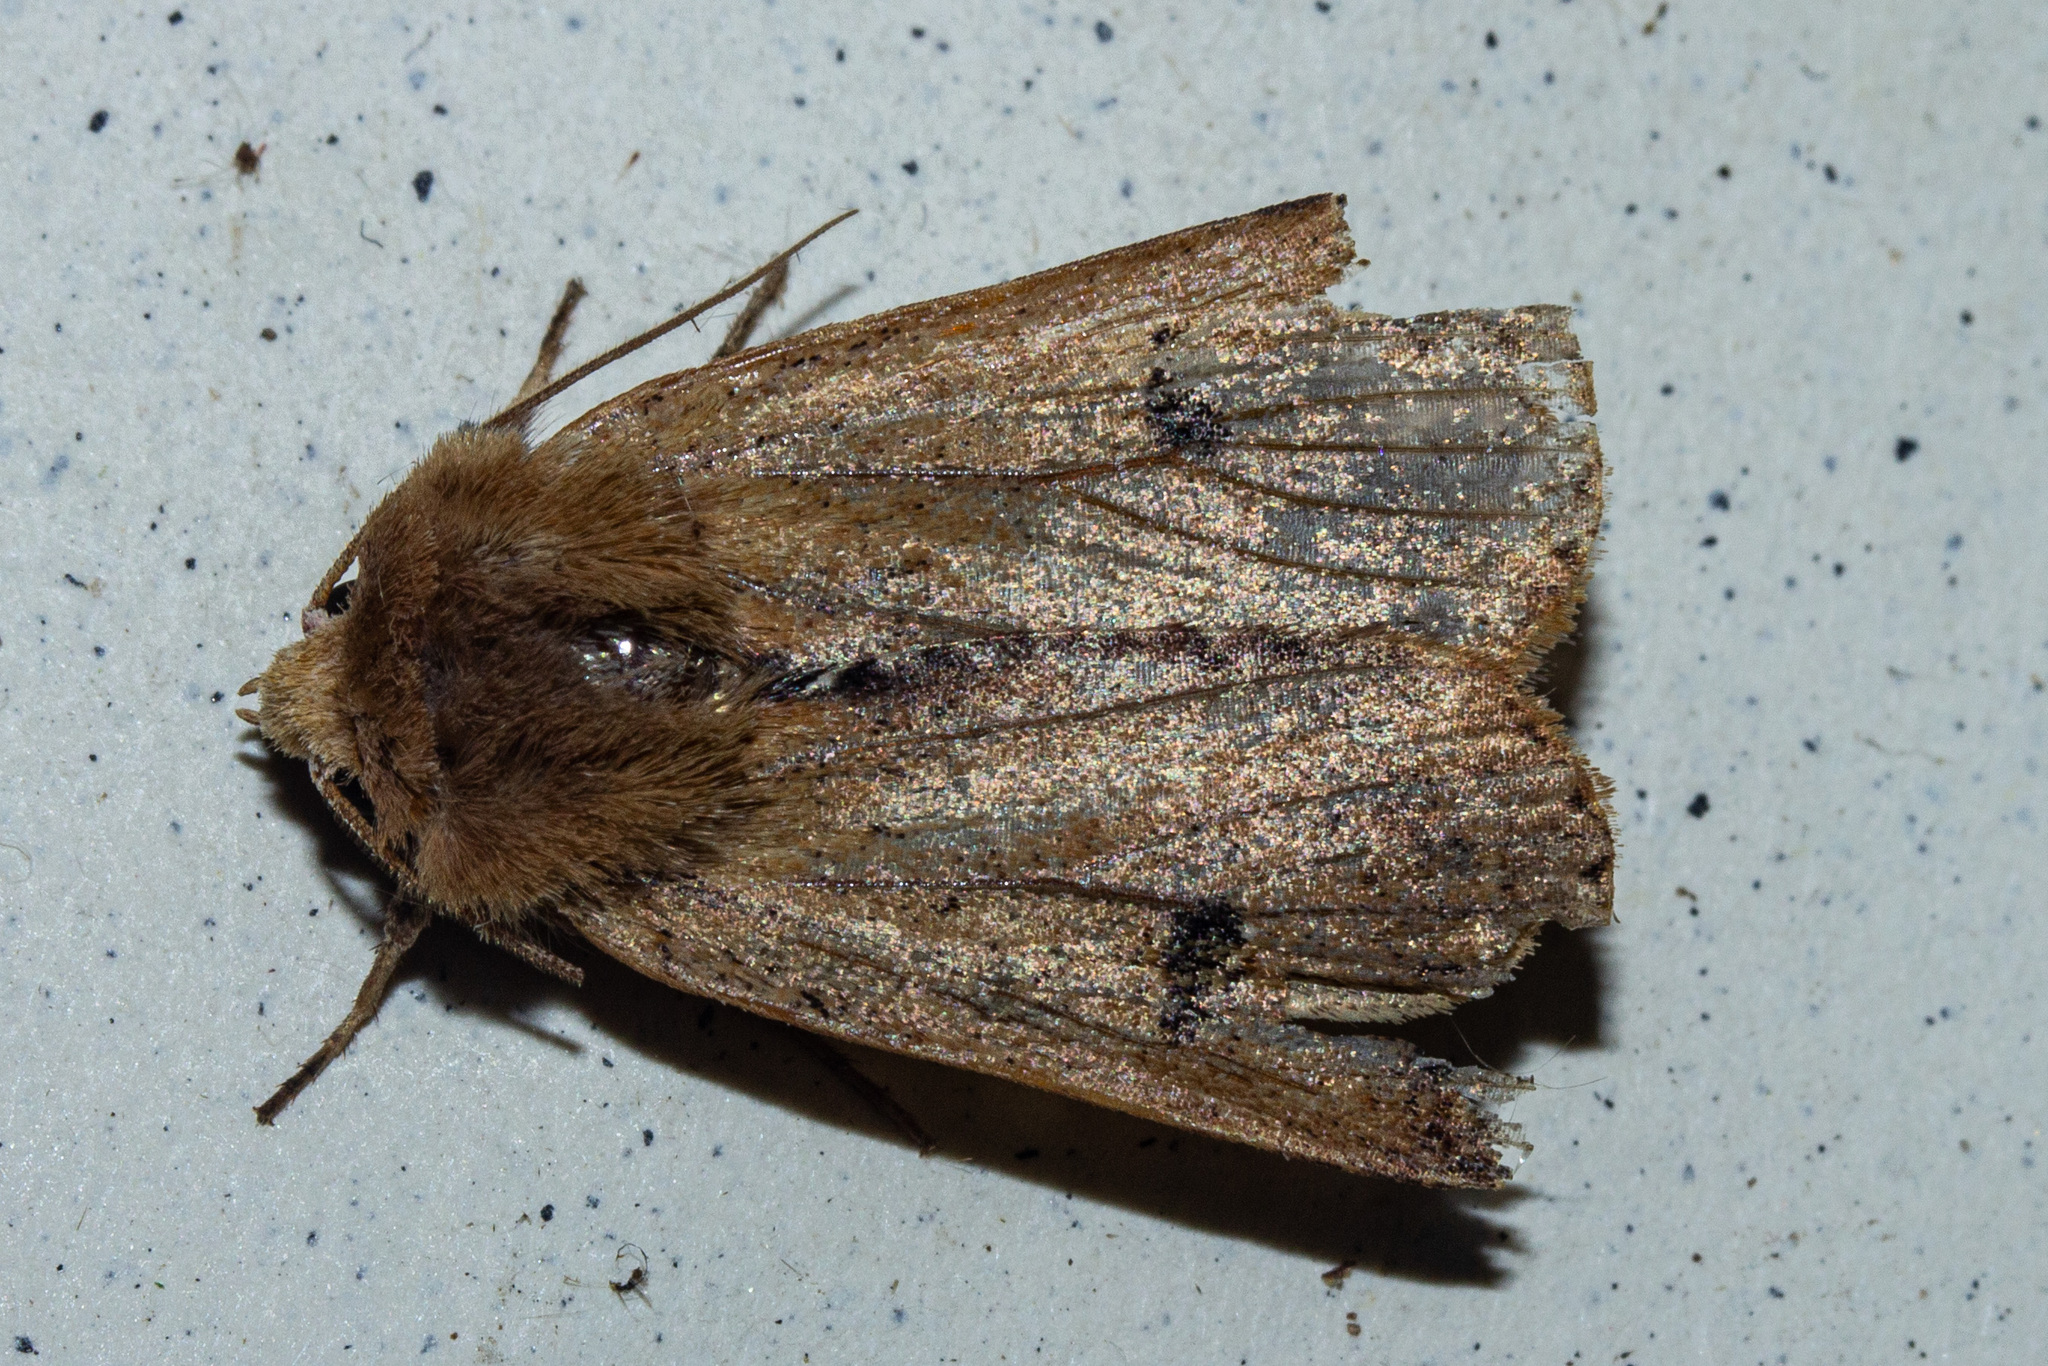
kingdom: Animalia
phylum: Arthropoda
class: Insecta
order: Lepidoptera
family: Noctuidae
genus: Diarsia
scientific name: Diarsia intermixta
